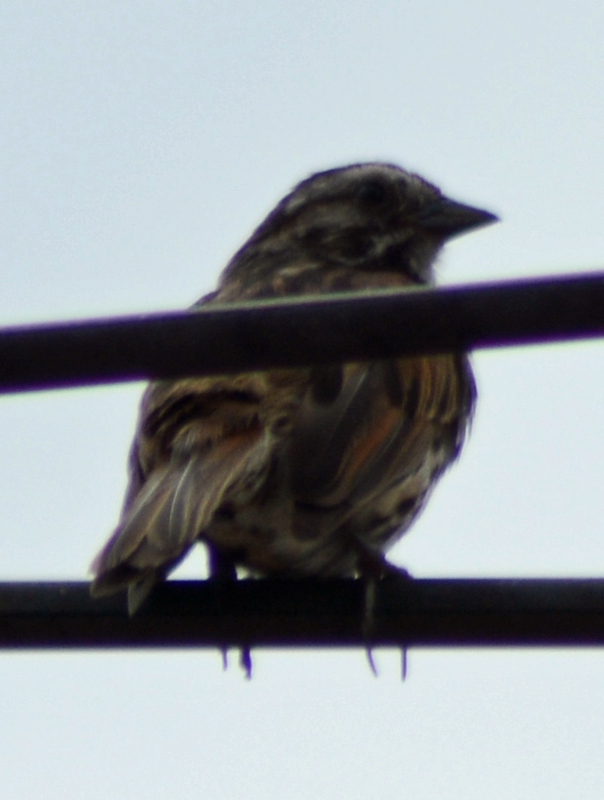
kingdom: Animalia
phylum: Chordata
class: Aves
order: Passeriformes
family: Passerellidae
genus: Melospiza
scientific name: Melospiza melodia
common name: Song sparrow
